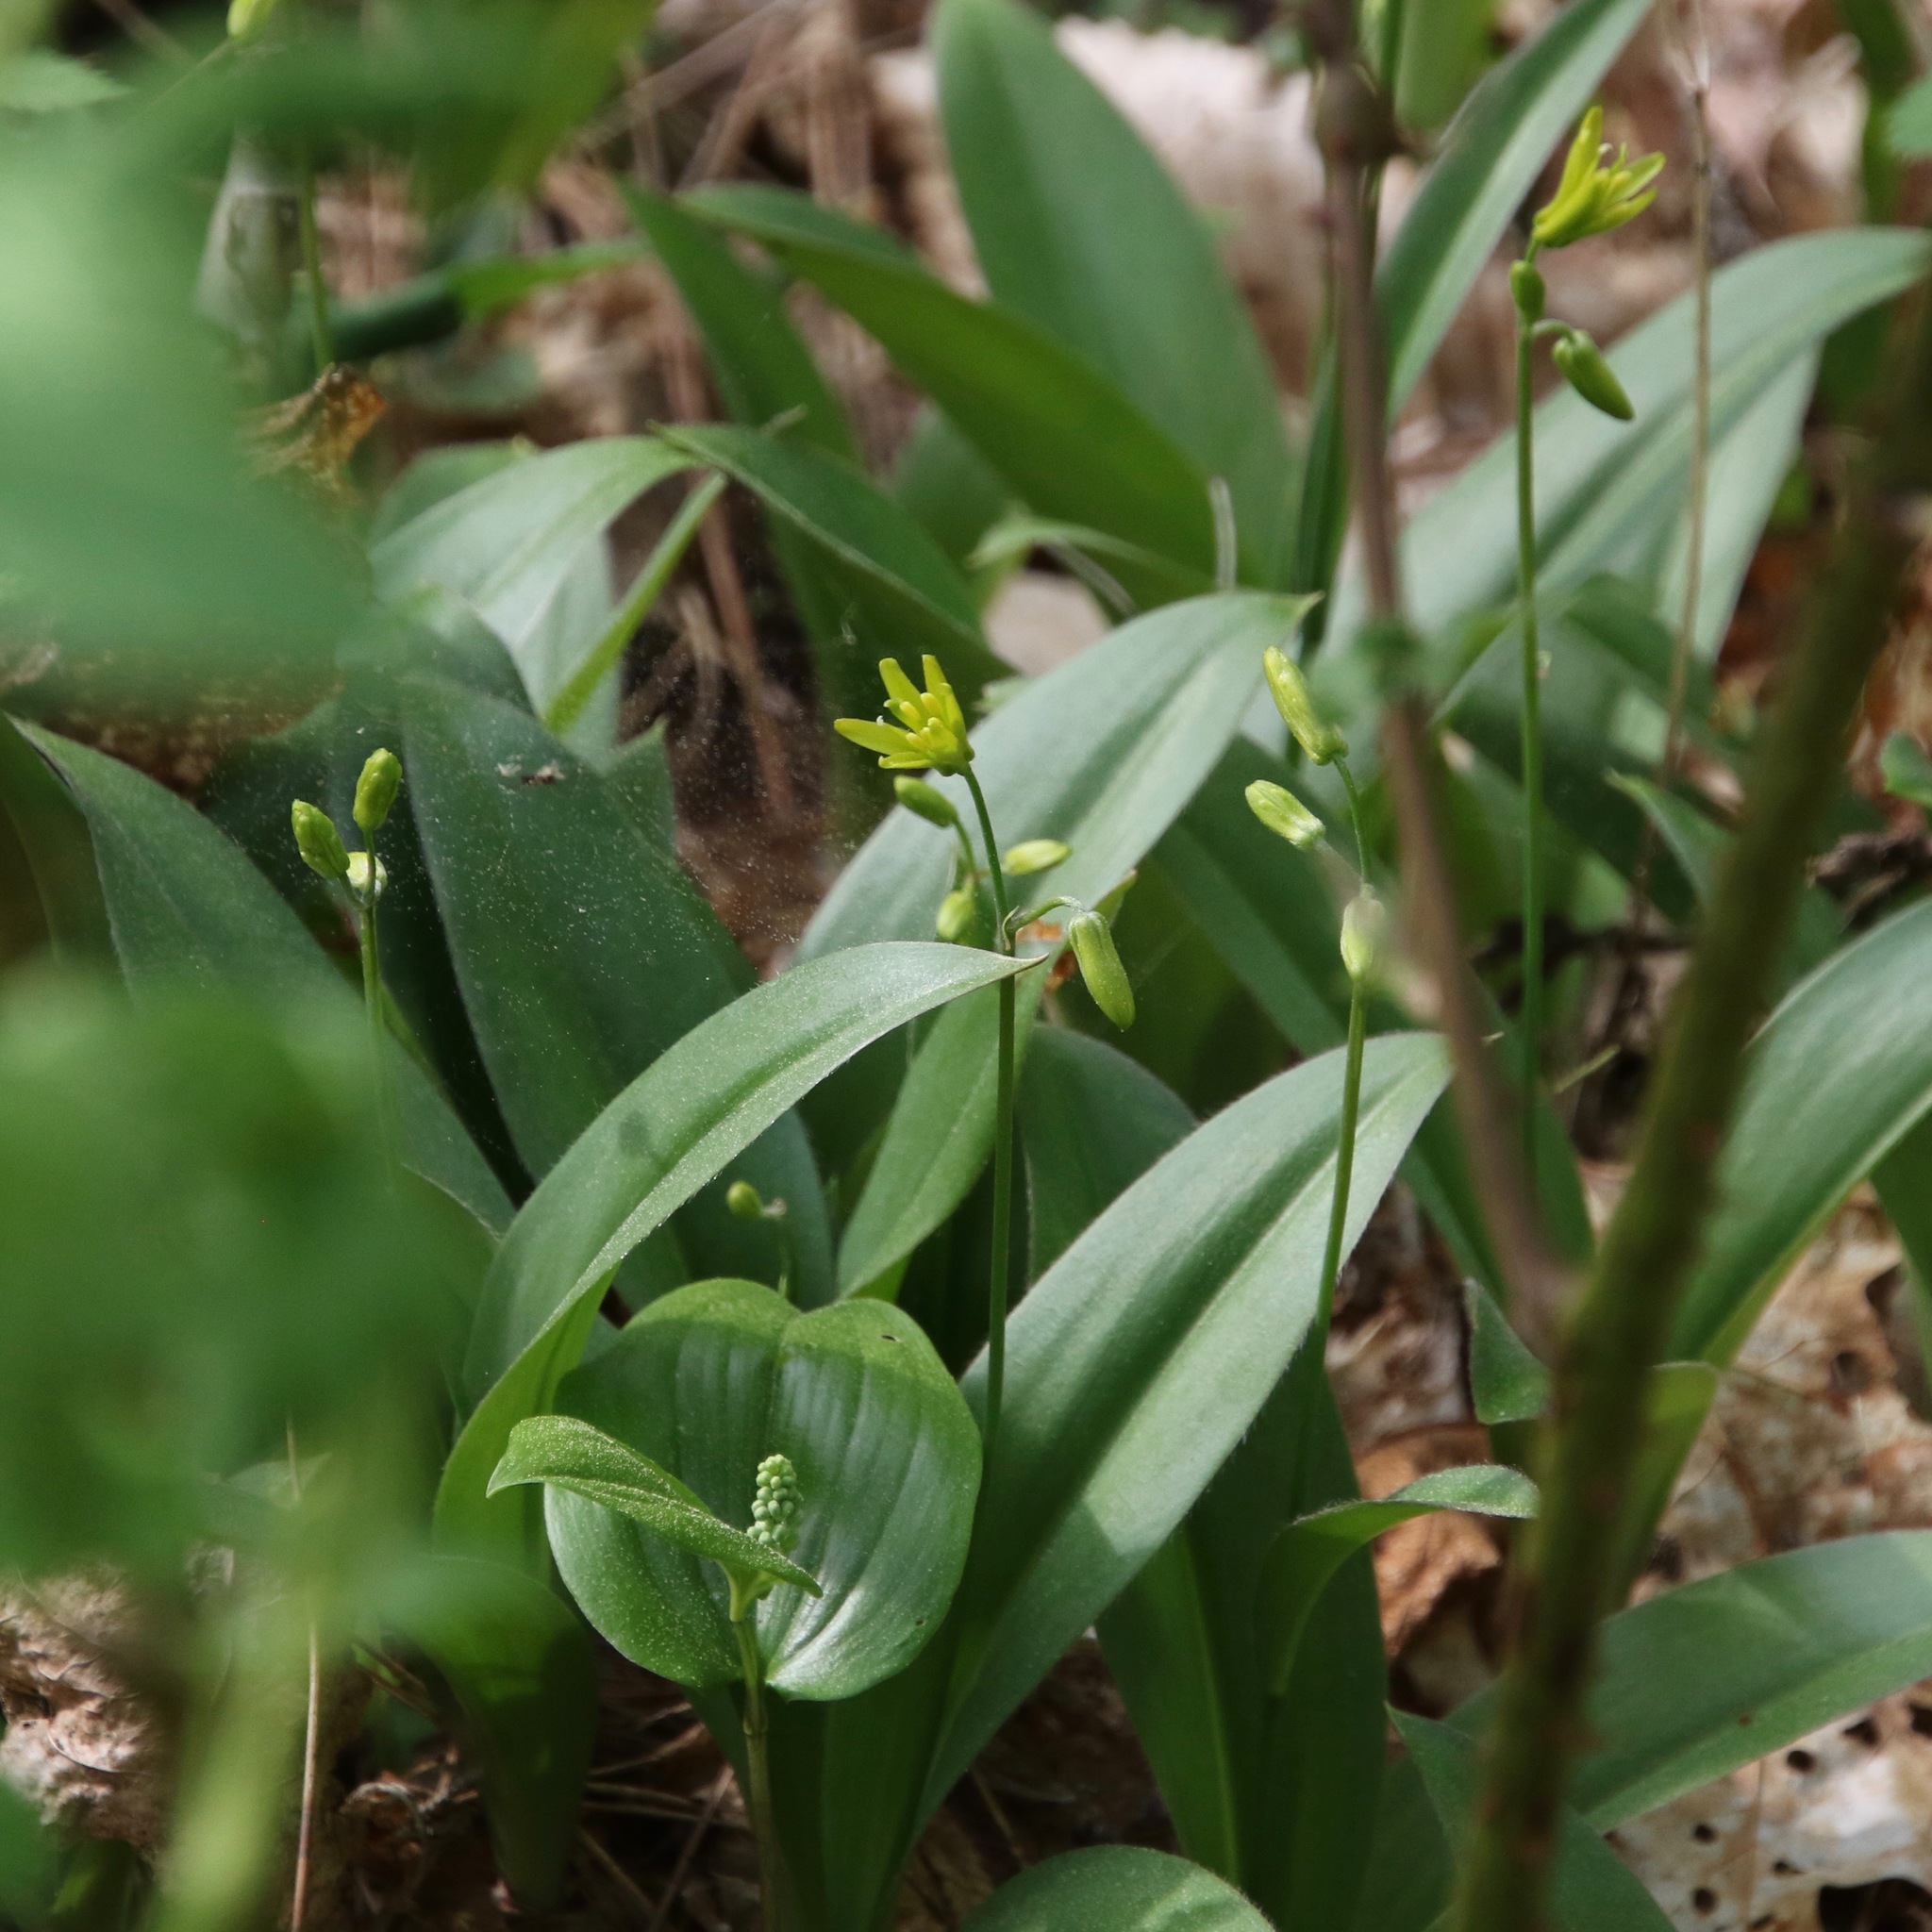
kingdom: Plantae
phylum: Tracheophyta
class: Liliopsida
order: Liliales
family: Liliaceae
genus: Clintonia
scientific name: Clintonia borealis
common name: Yellow clintonia
